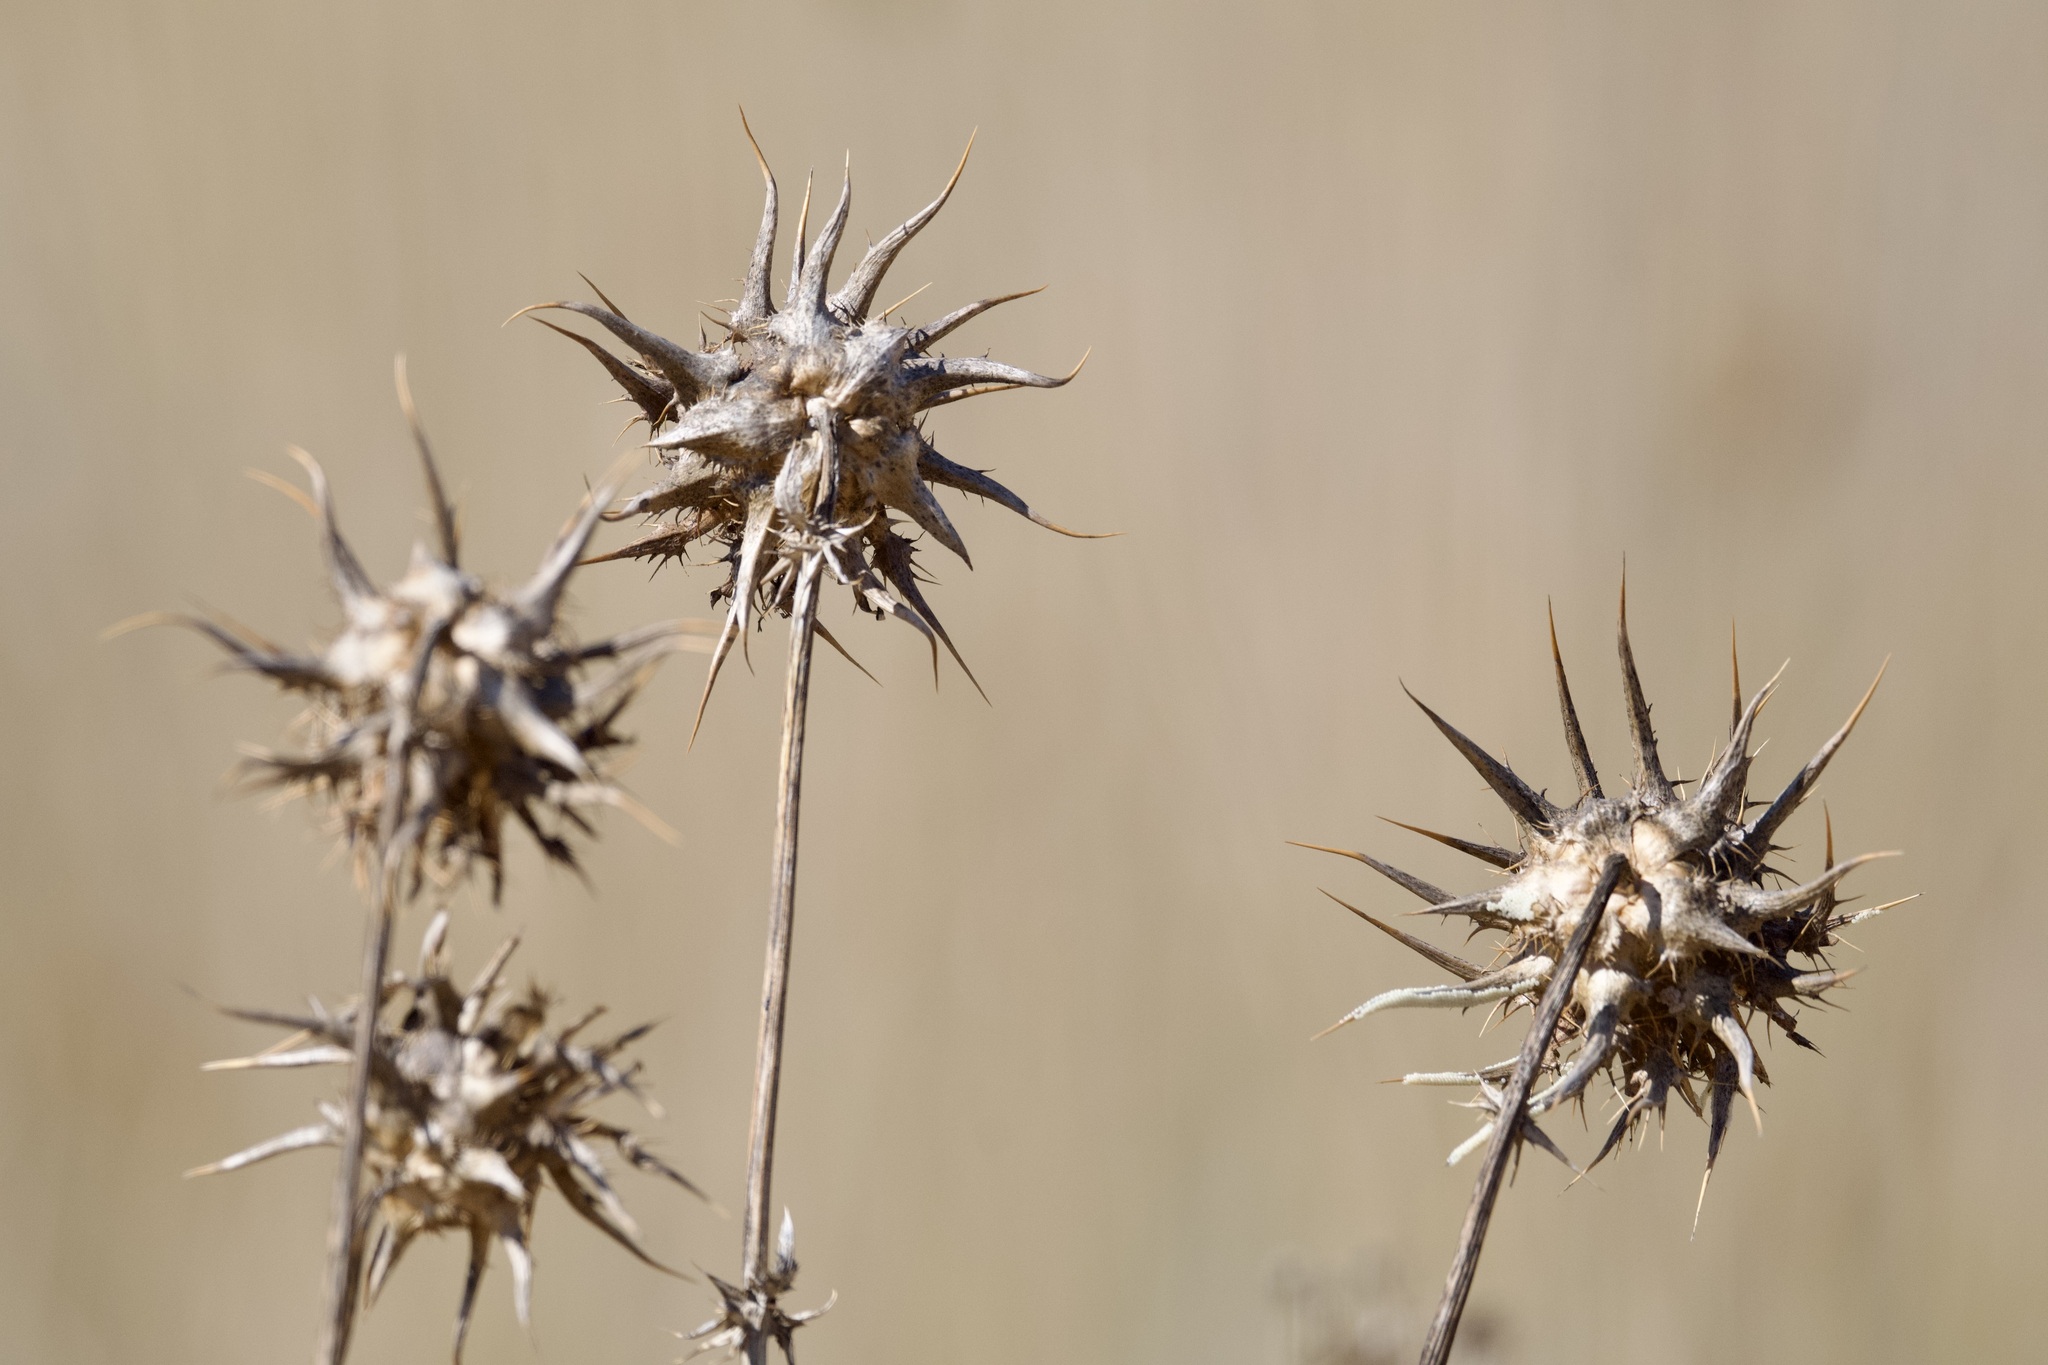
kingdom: Plantae
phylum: Tracheophyta
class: Magnoliopsida
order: Asterales
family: Asteraceae
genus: Silybum
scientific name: Silybum marianum
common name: Milk thistle
